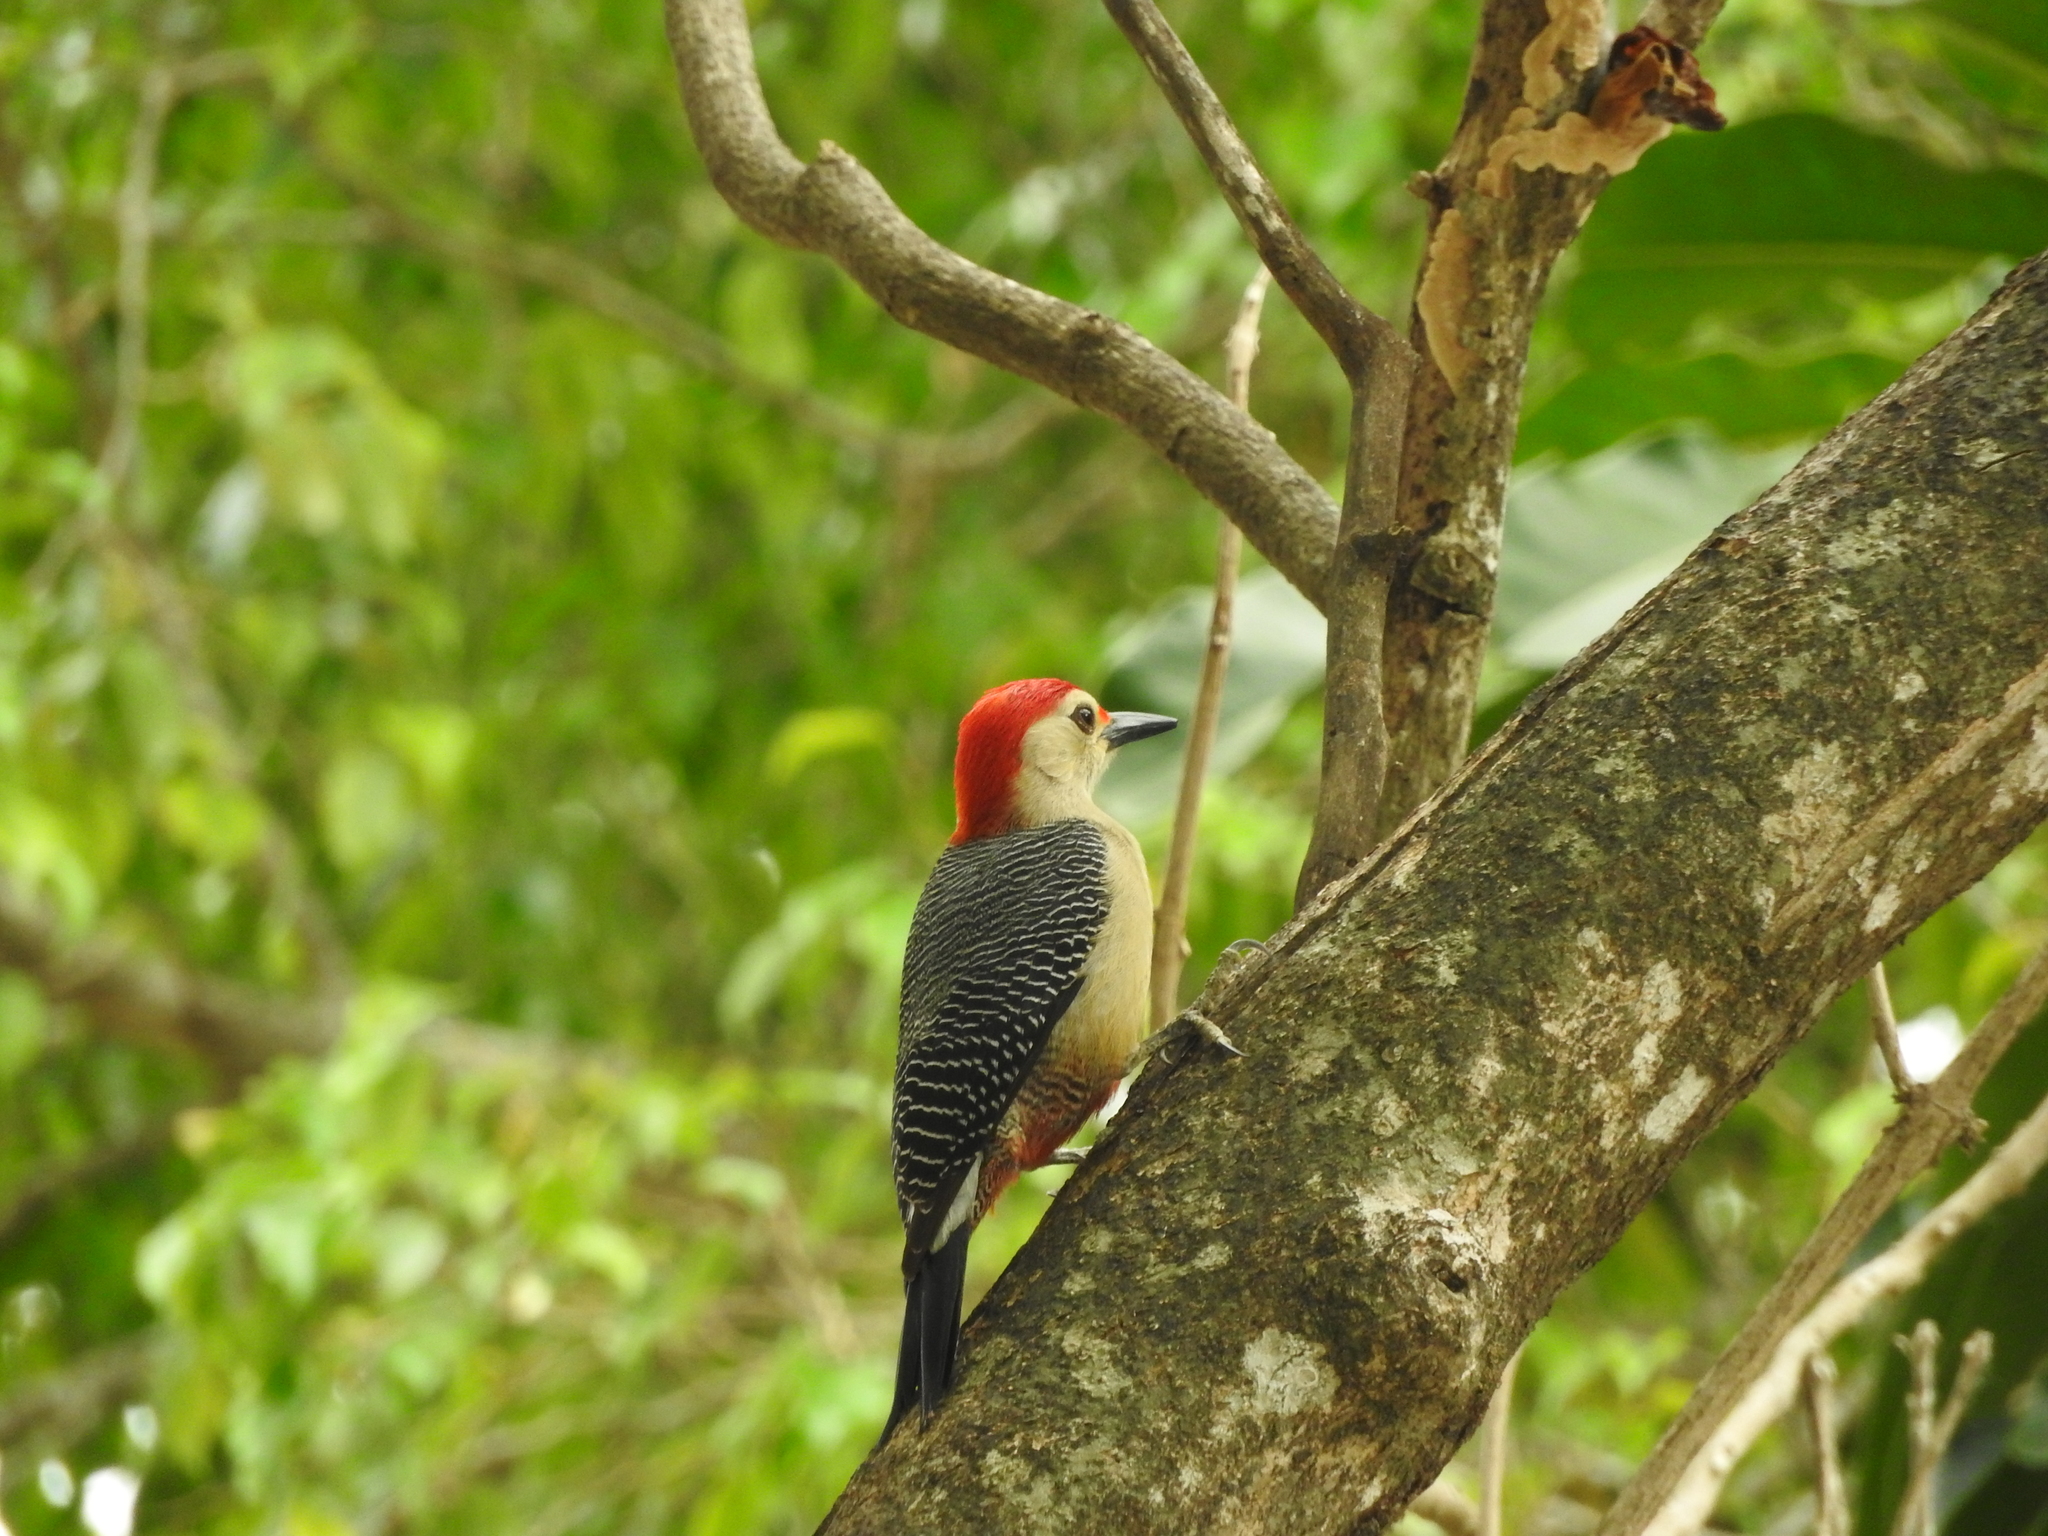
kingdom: Animalia
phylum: Chordata
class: Aves
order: Piciformes
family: Picidae
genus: Melanerpes
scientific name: Melanerpes santacruzi
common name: Velasquez's woodpecker
